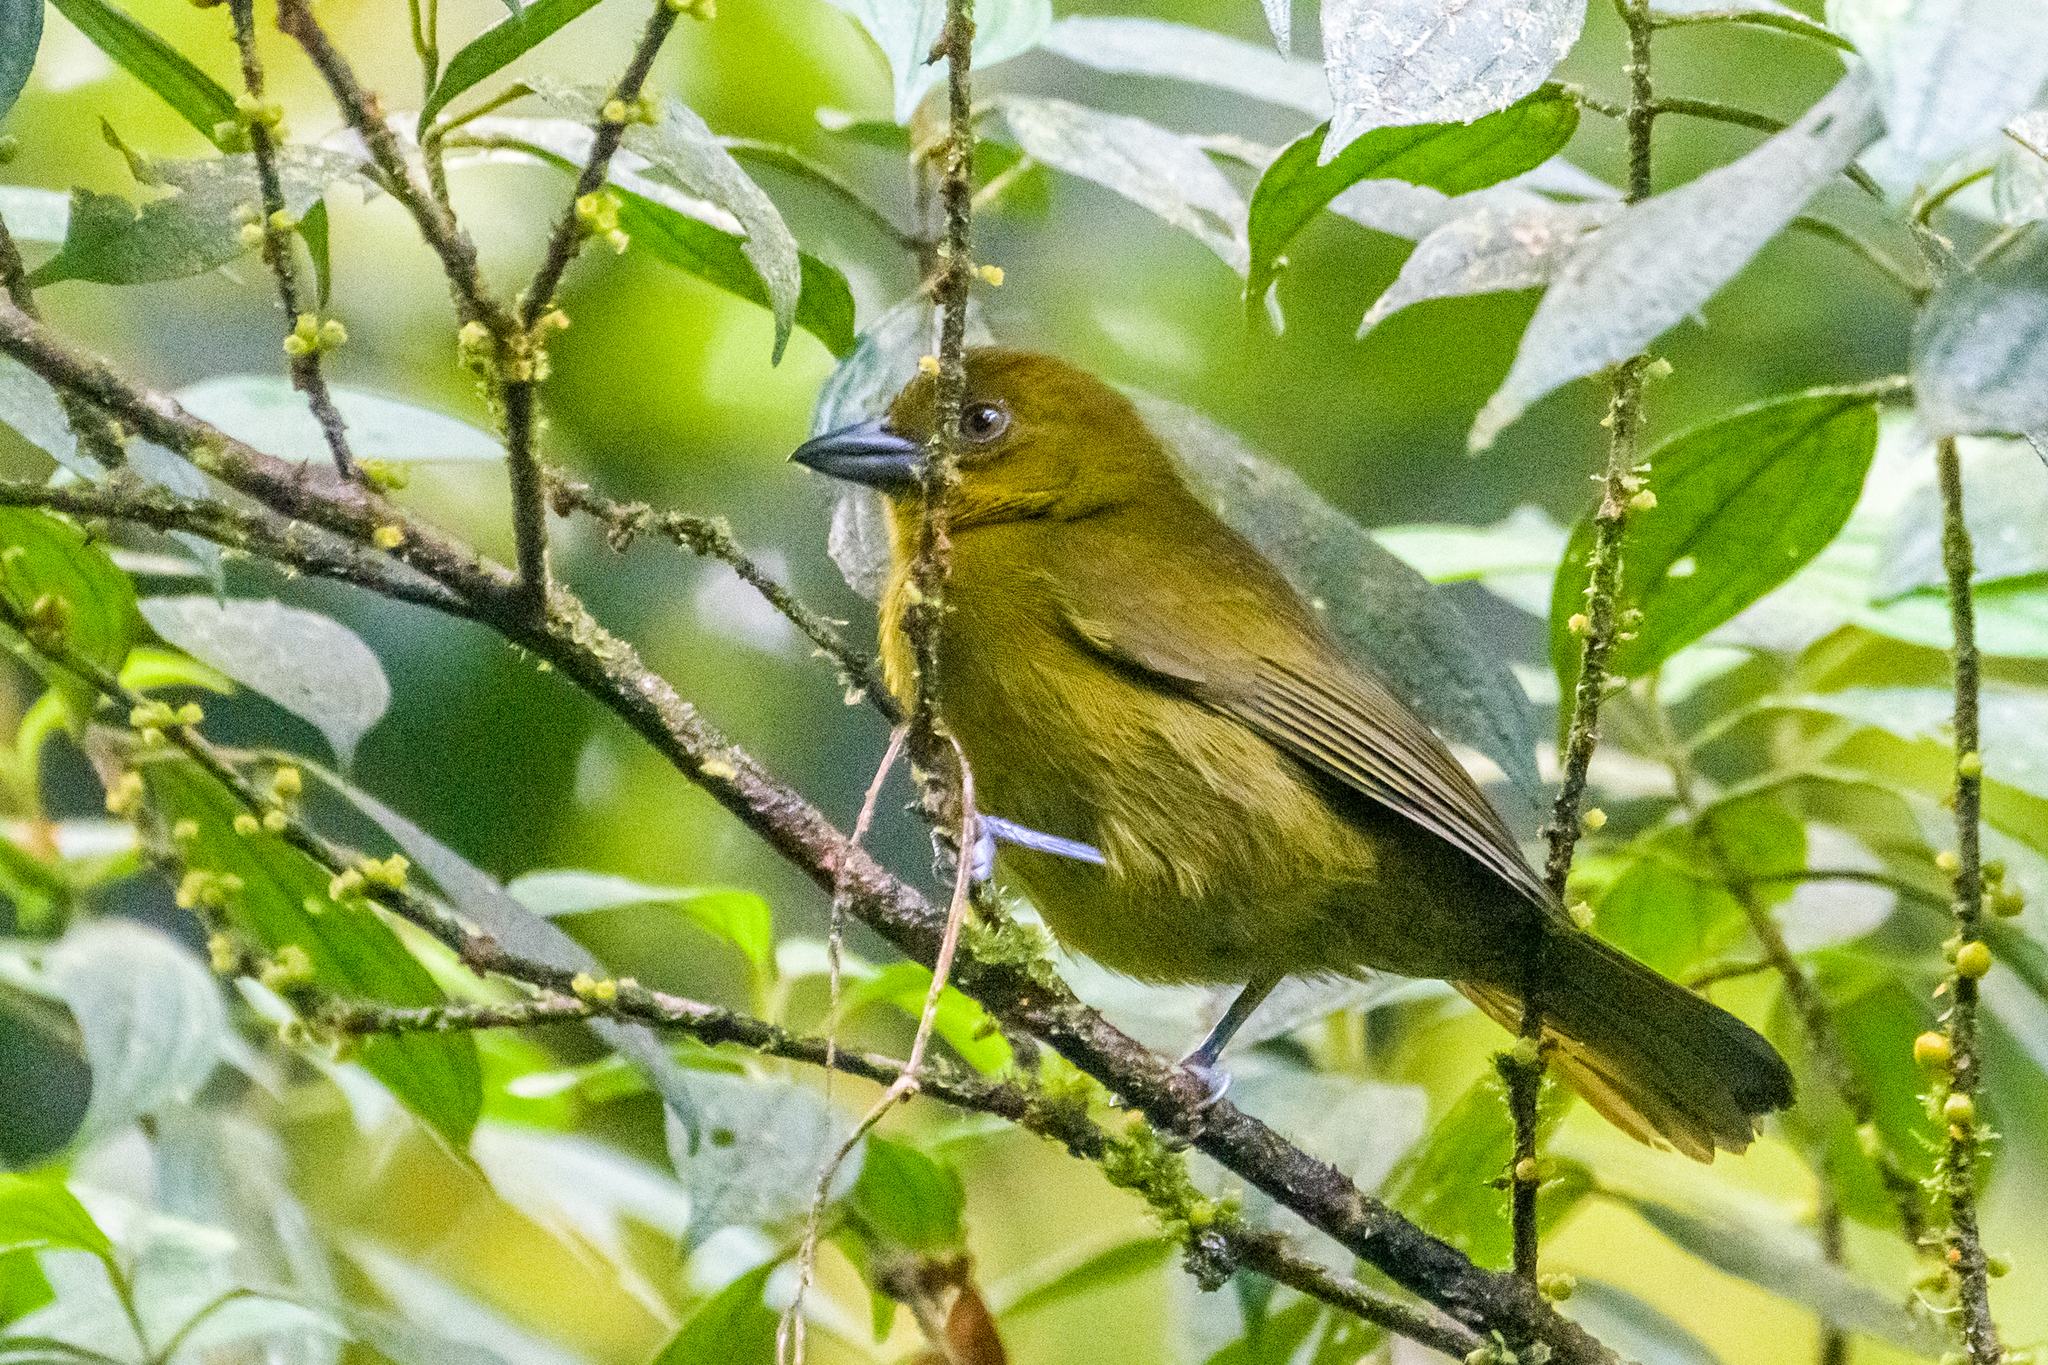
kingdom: Animalia
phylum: Chordata
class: Aves
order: Passeriformes
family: Cardinalidae
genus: Chlorothraupis
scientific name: Chlorothraupis carmioli
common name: Carmiol's tanager
